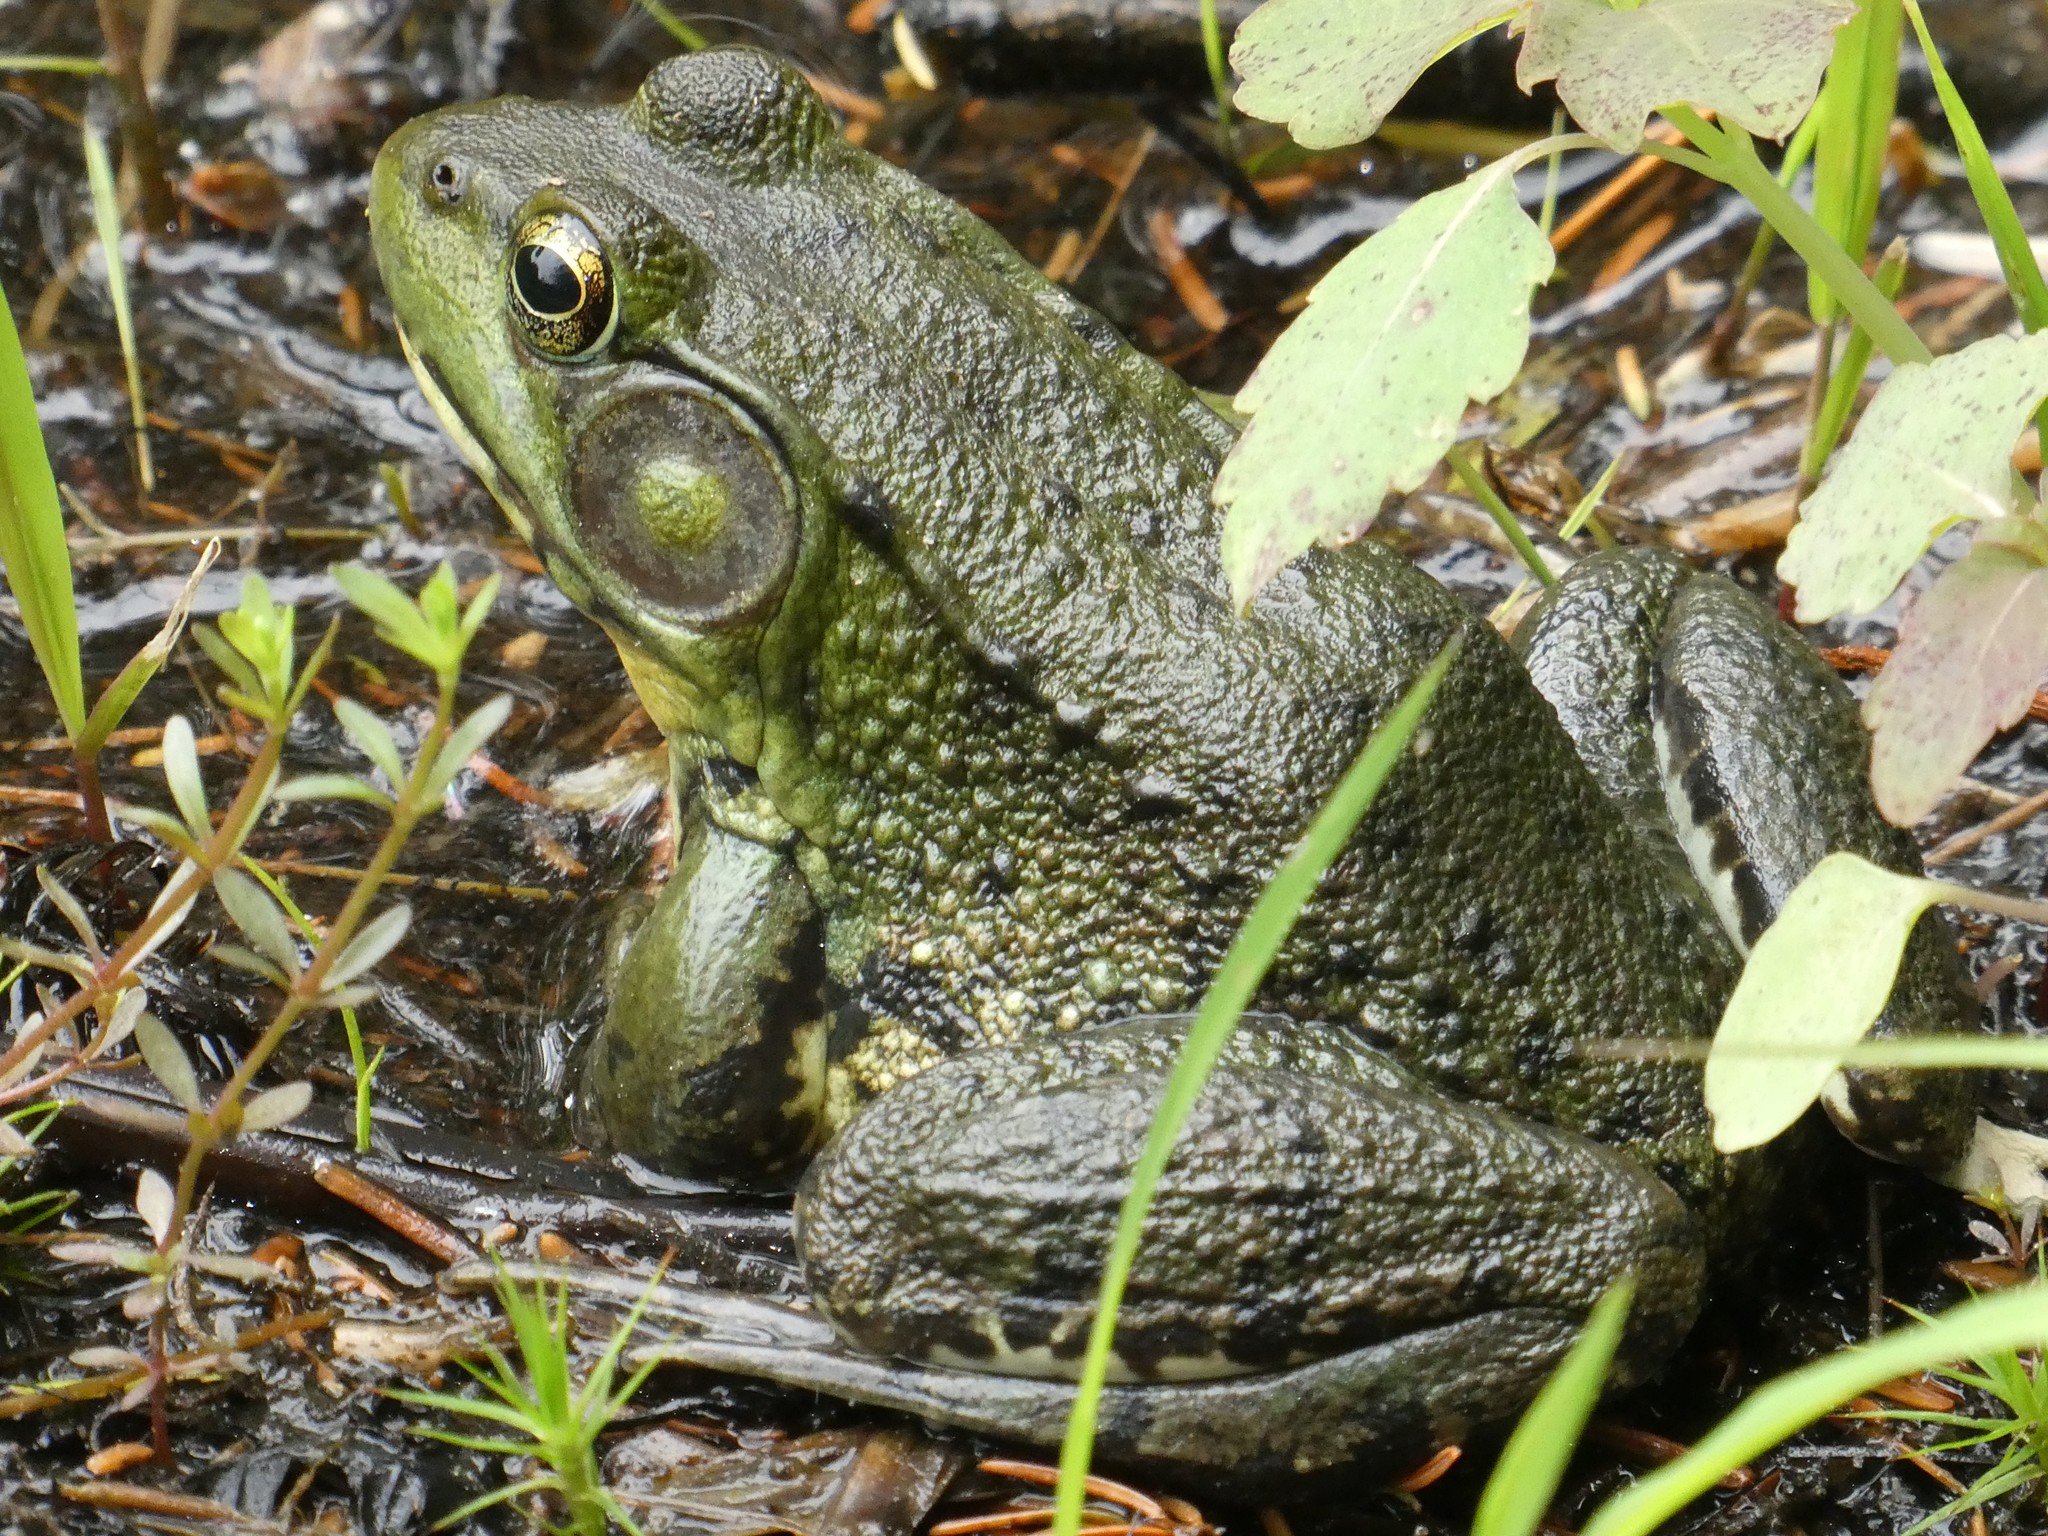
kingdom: Animalia
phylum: Chordata
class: Amphibia
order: Anura
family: Ranidae
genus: Lithobates
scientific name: Lithobates clamitans
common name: Green frog
